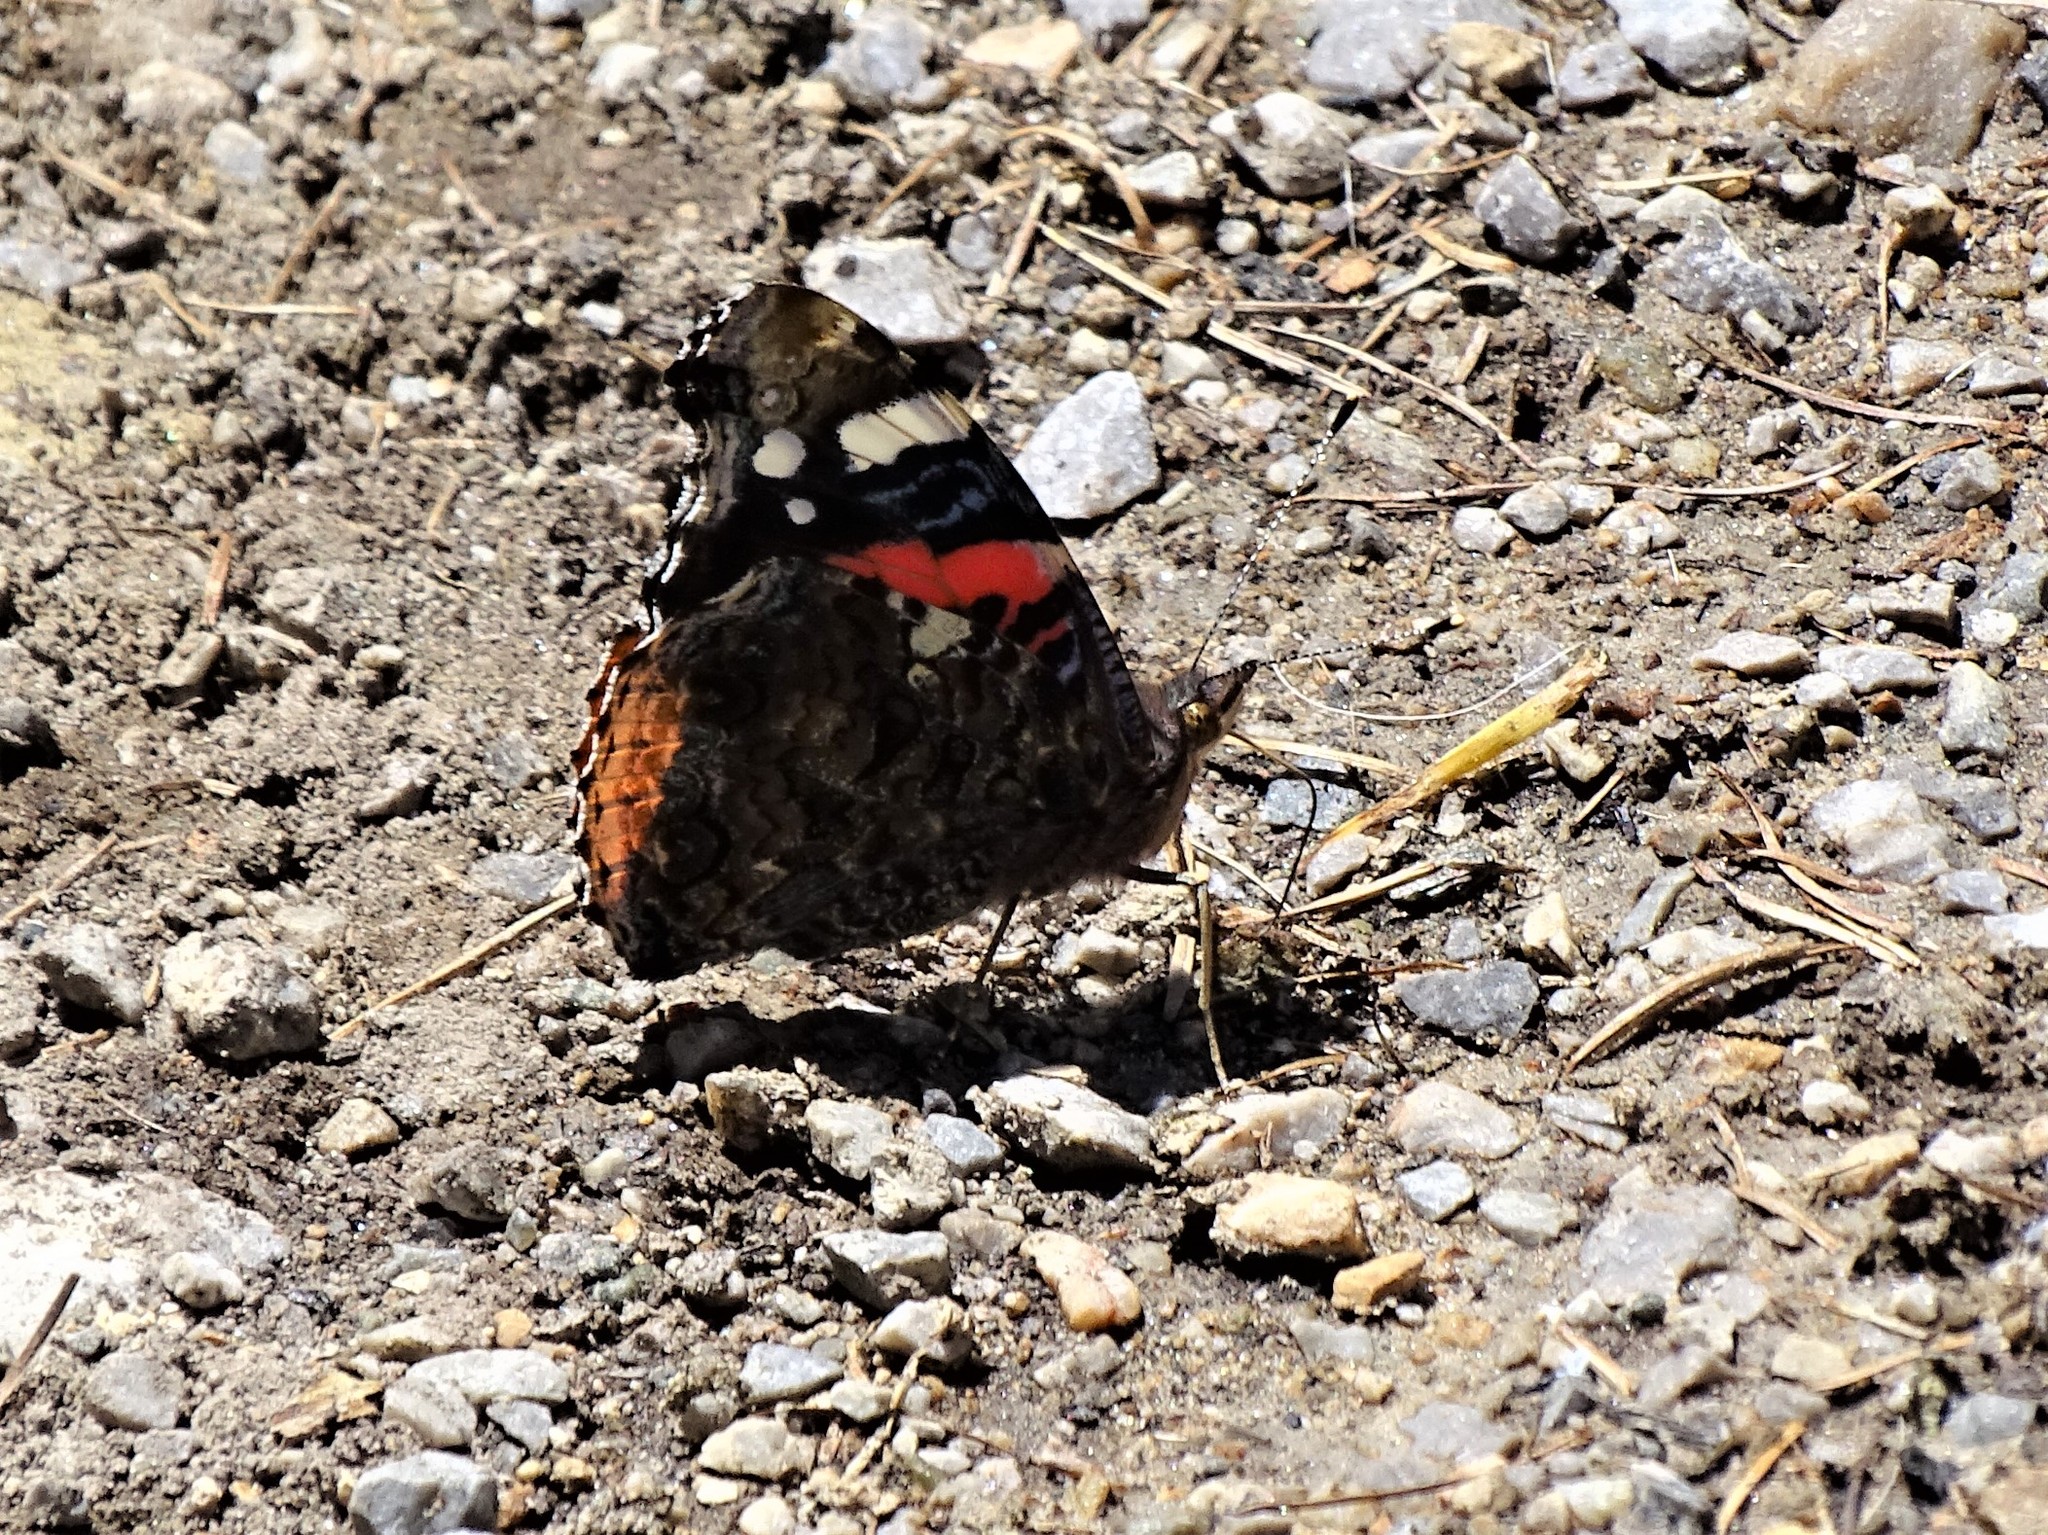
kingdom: Animalia
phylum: Arthropoda
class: Insecta
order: Lepidoptera
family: Nymphalidae
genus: Vanessa
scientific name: Vanessa atalanta
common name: Red admiral
